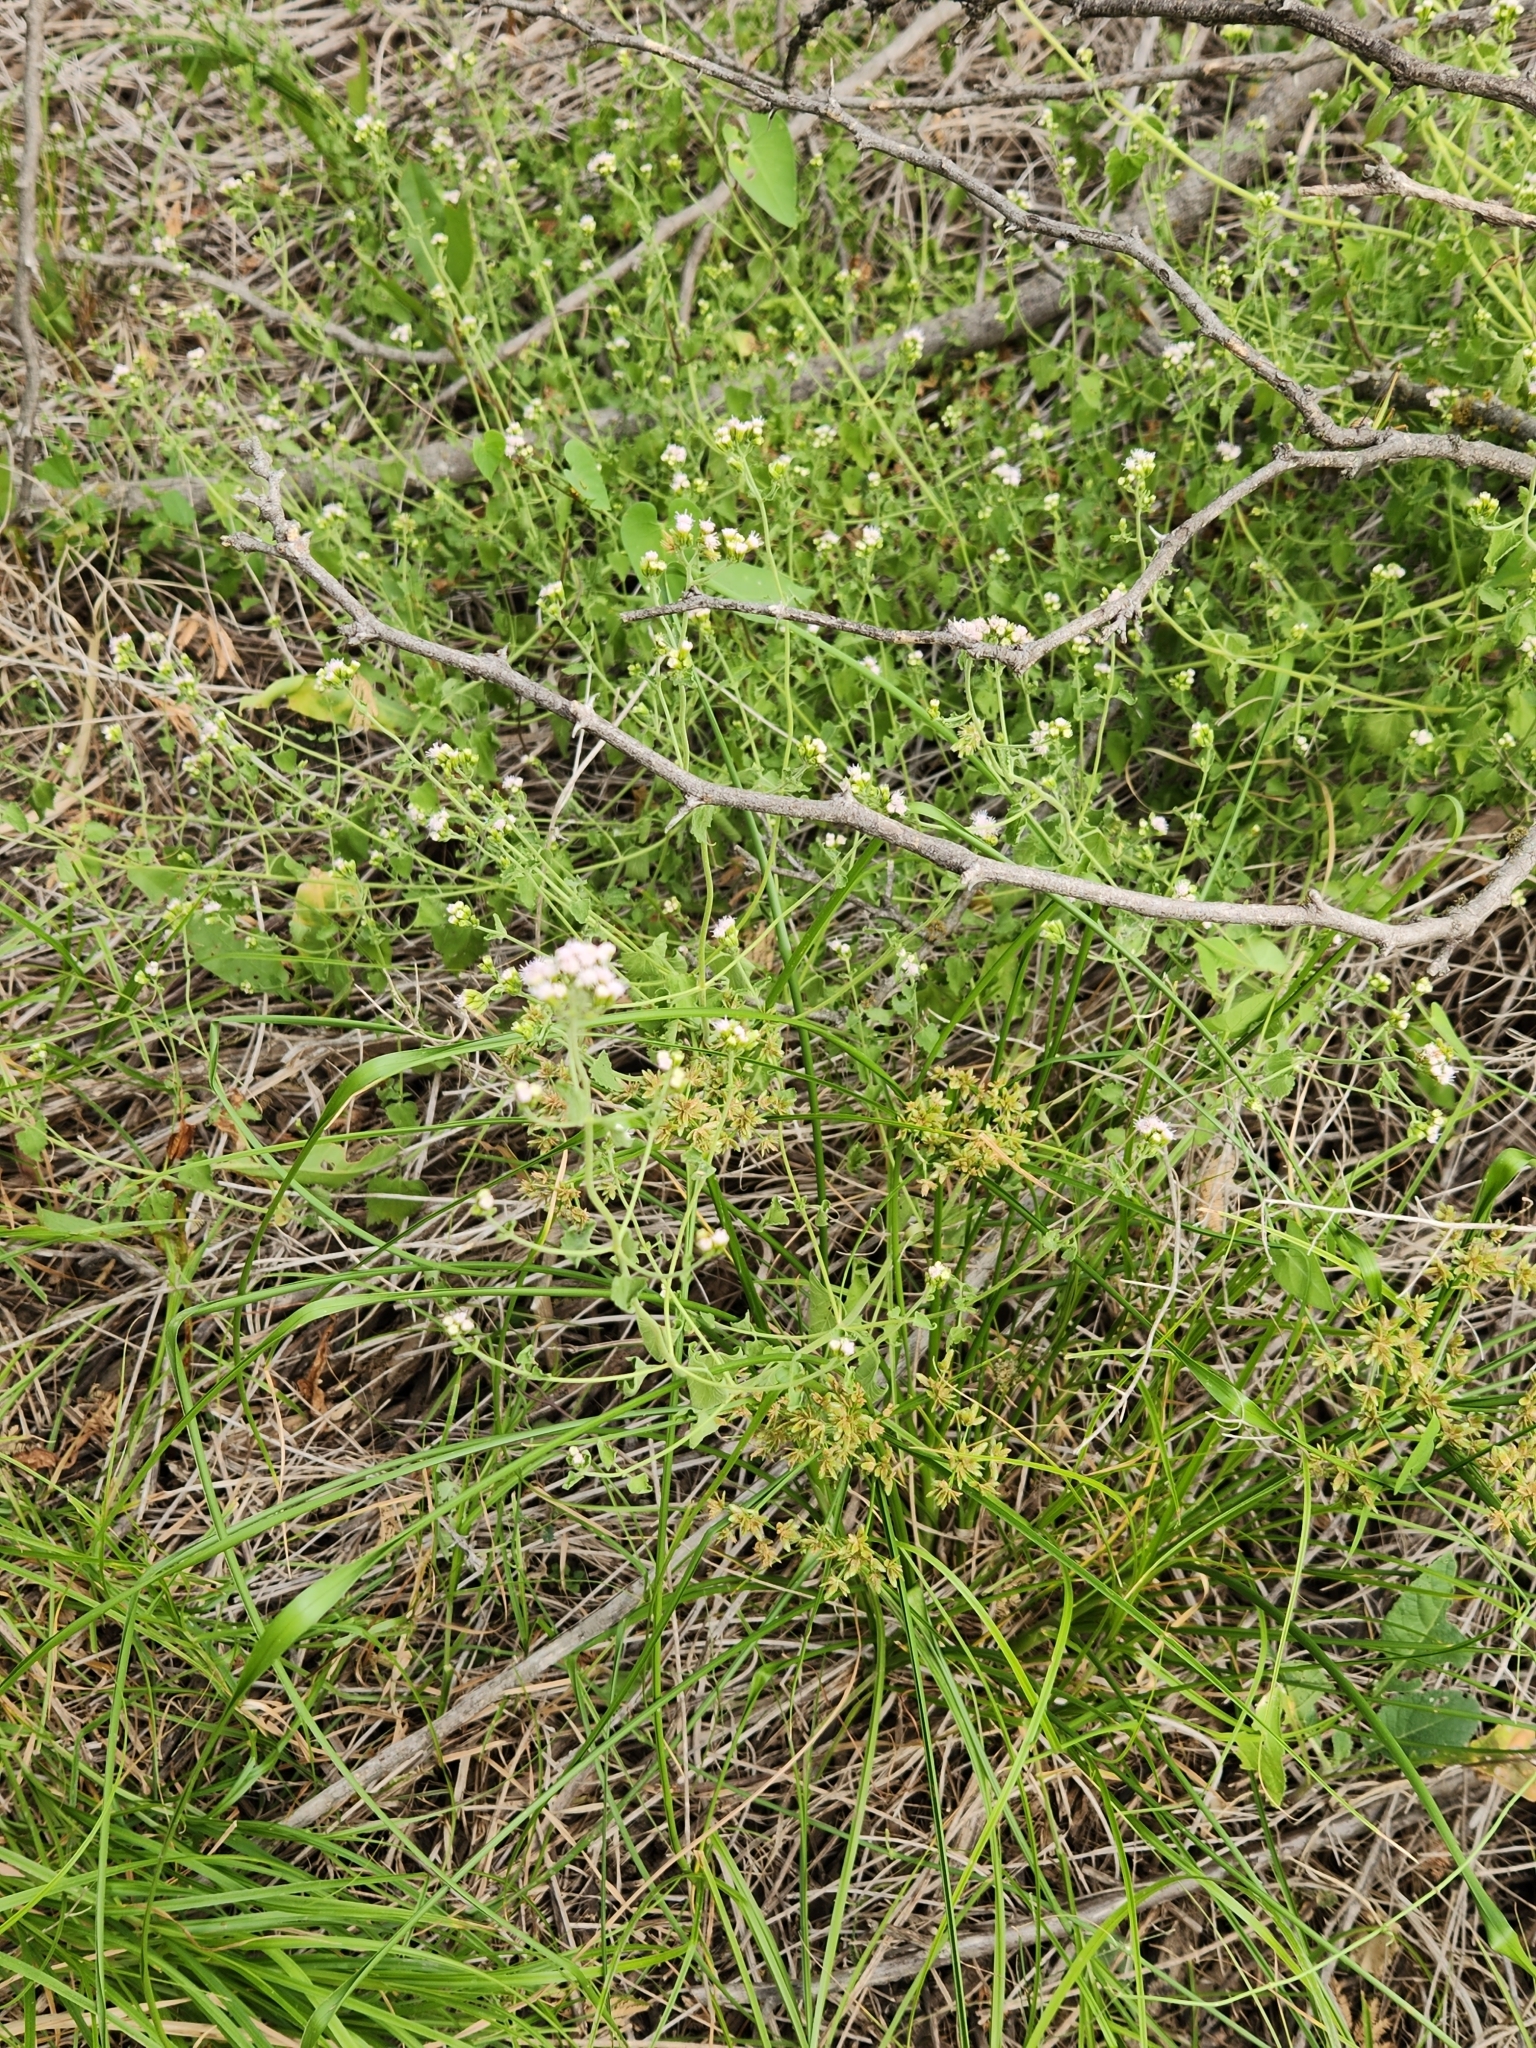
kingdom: Plantae
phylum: Tracheophyta
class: Magnoliopsida
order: Asterales
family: Asteraceae
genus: Fleischmannia
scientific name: Fleischmannia incarnata
